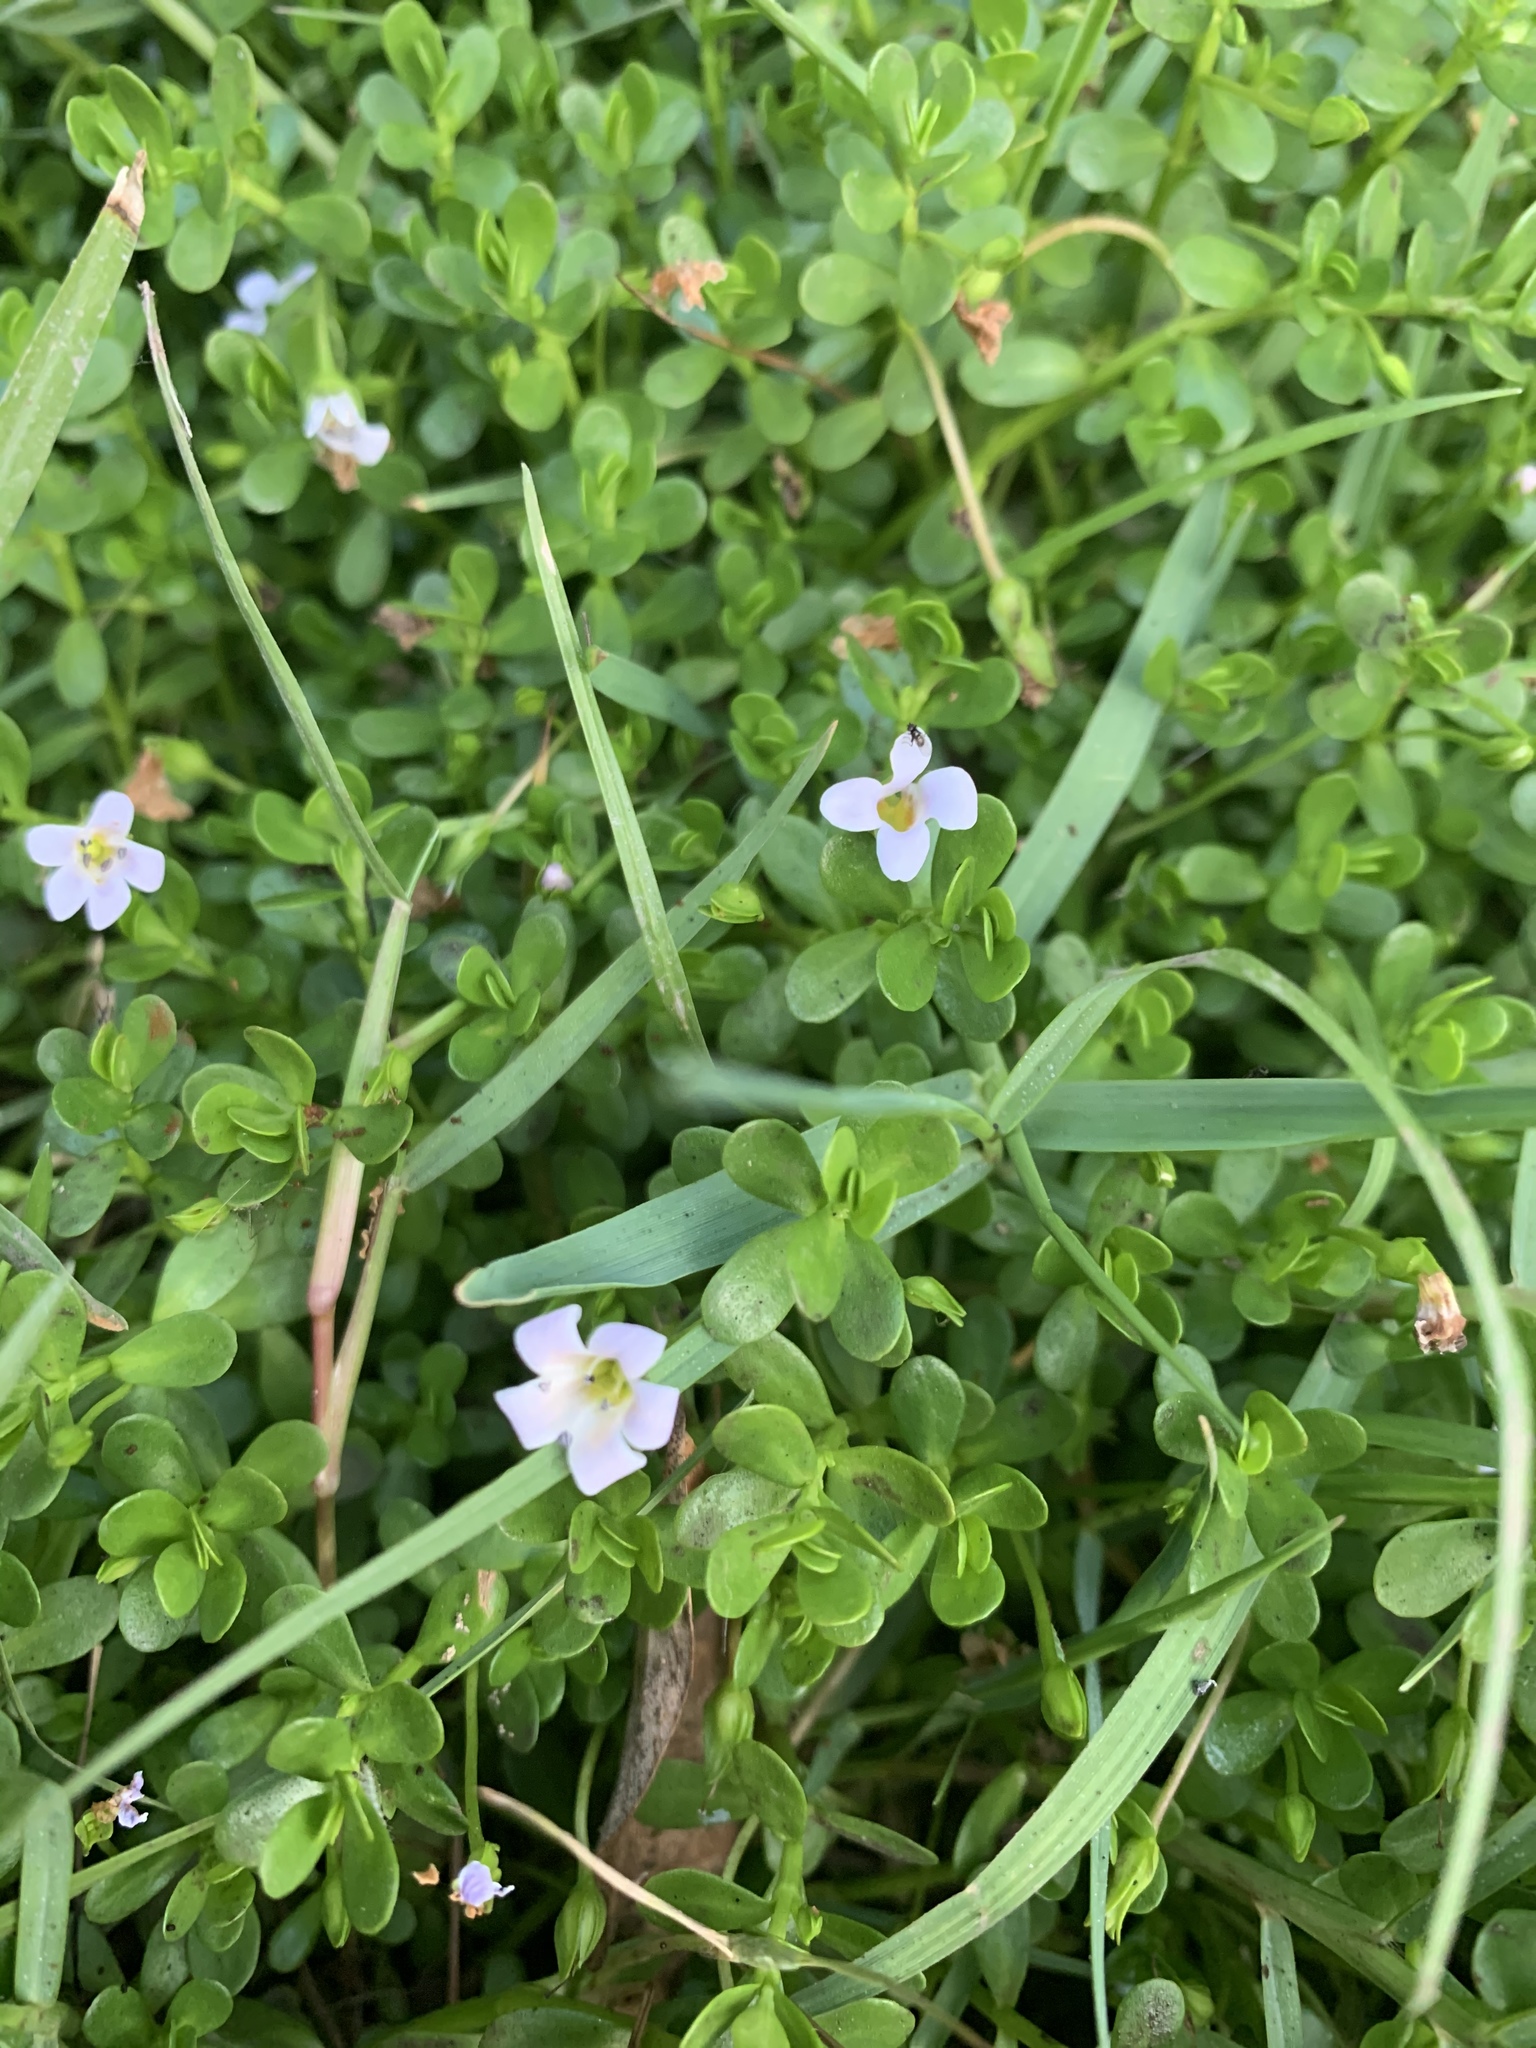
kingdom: Plantae
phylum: Tracheophyta
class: Magnoliopsida
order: Lamiales
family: Plantaginaceae
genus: Bacopa
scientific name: Bacopa monnieri
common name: Indian-pennywort
